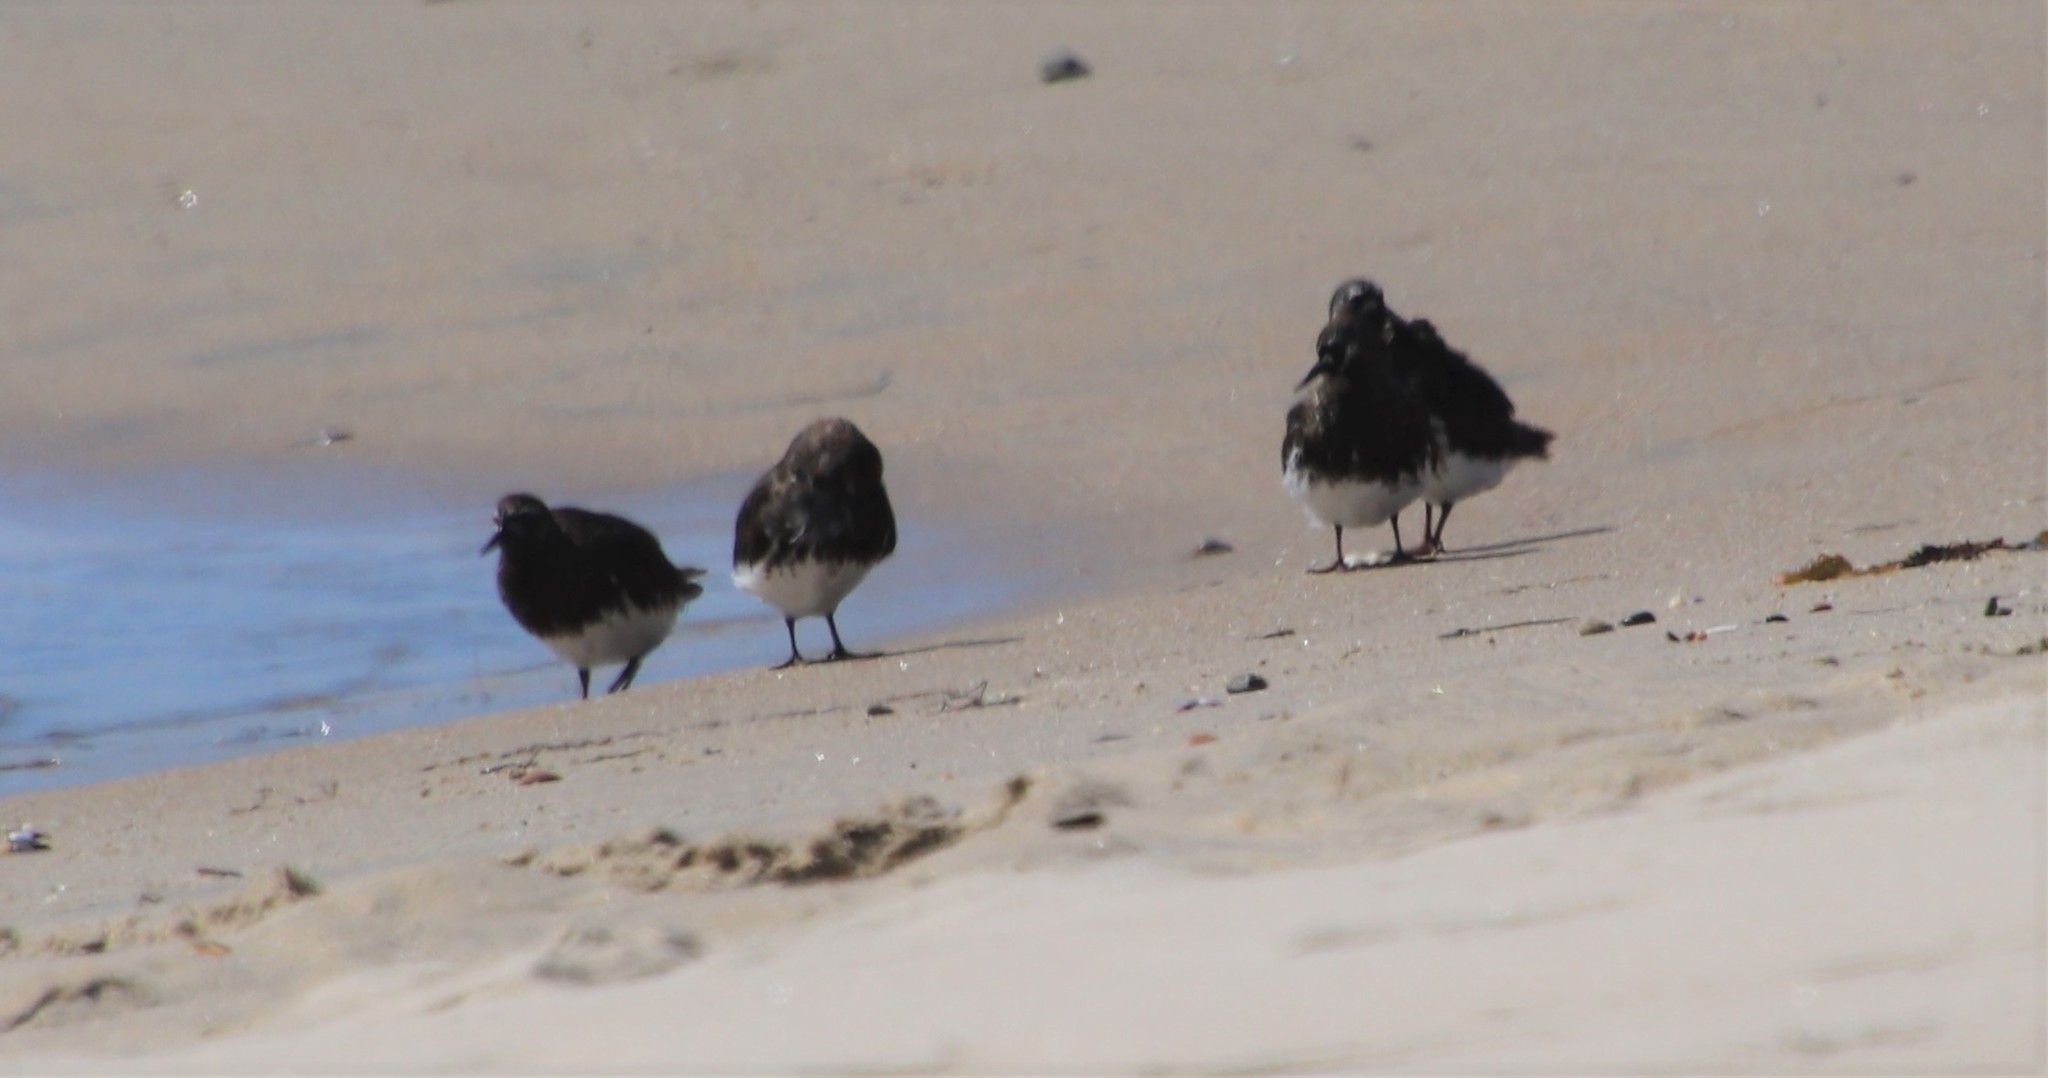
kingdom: Animalia
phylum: Chordata
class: Aves
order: Charadriiformes
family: Scolopacidae
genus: Arenaria
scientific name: Arenaria melanocephala
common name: Black turnstone
